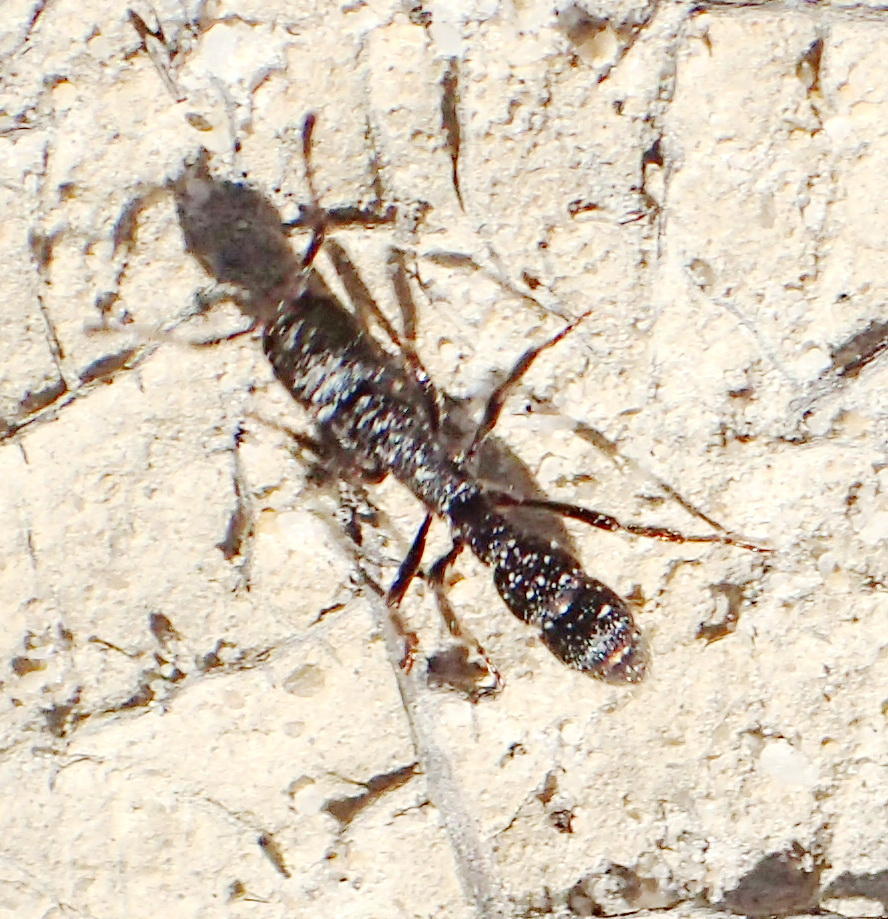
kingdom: Animalia
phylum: Arthropoda
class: Insecta
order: Hymenoptera
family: Formicidae
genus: Bothroponera
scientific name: Bothroponera cariosa
